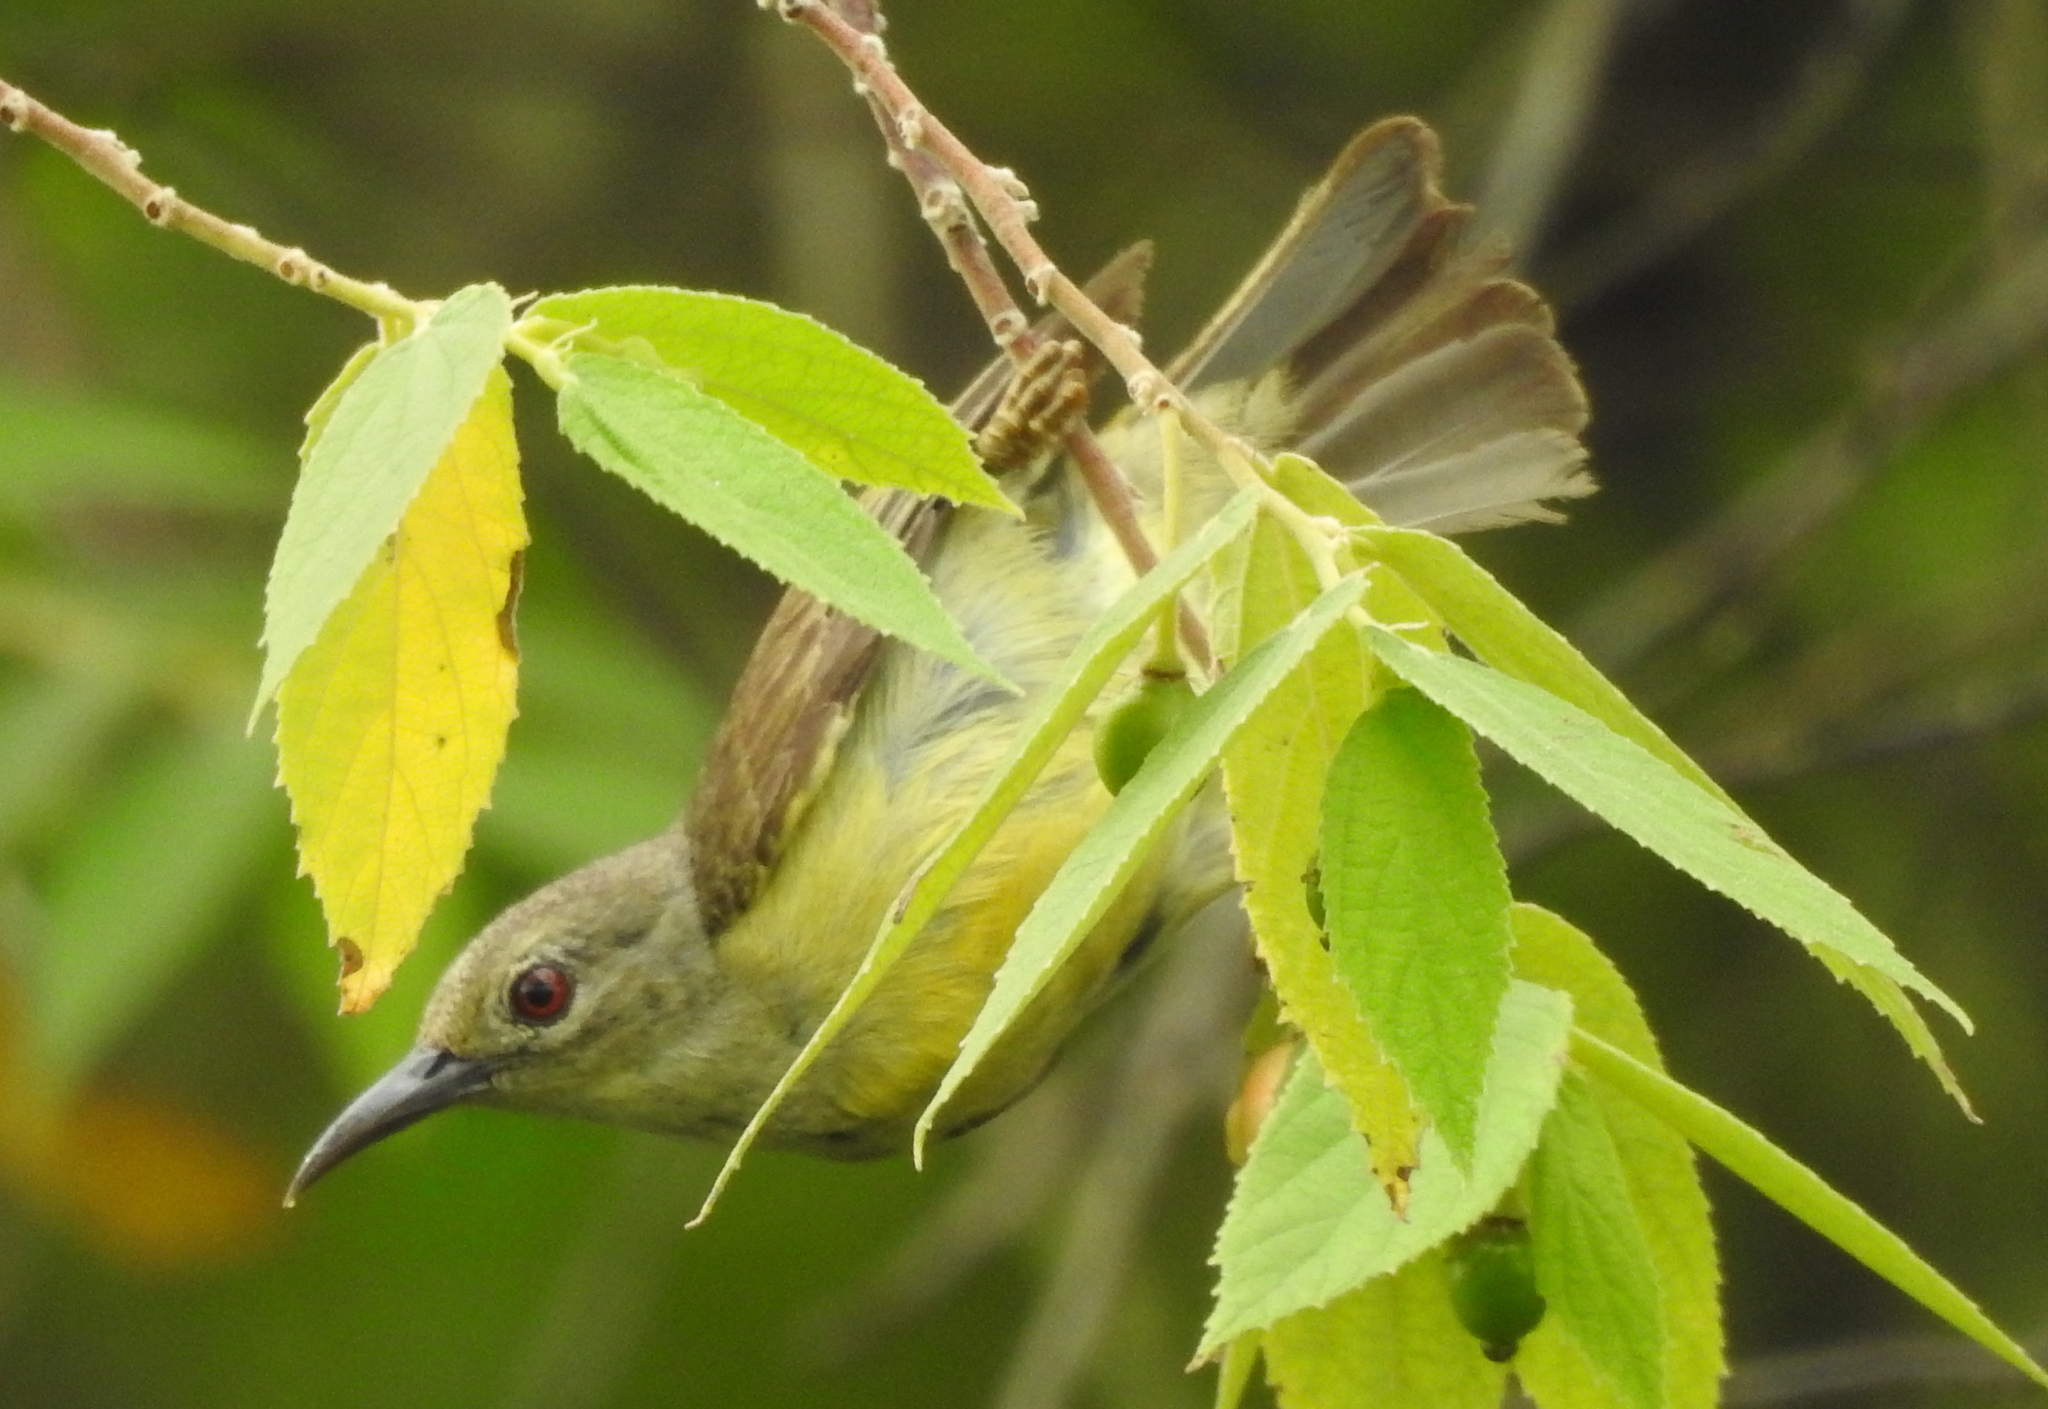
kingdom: Animalia
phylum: Chordata
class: Aves
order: Passeriformes
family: Nectariniidae
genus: Anthreptes
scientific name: Anthreptes malacensis
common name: Brown-throated sunbird
